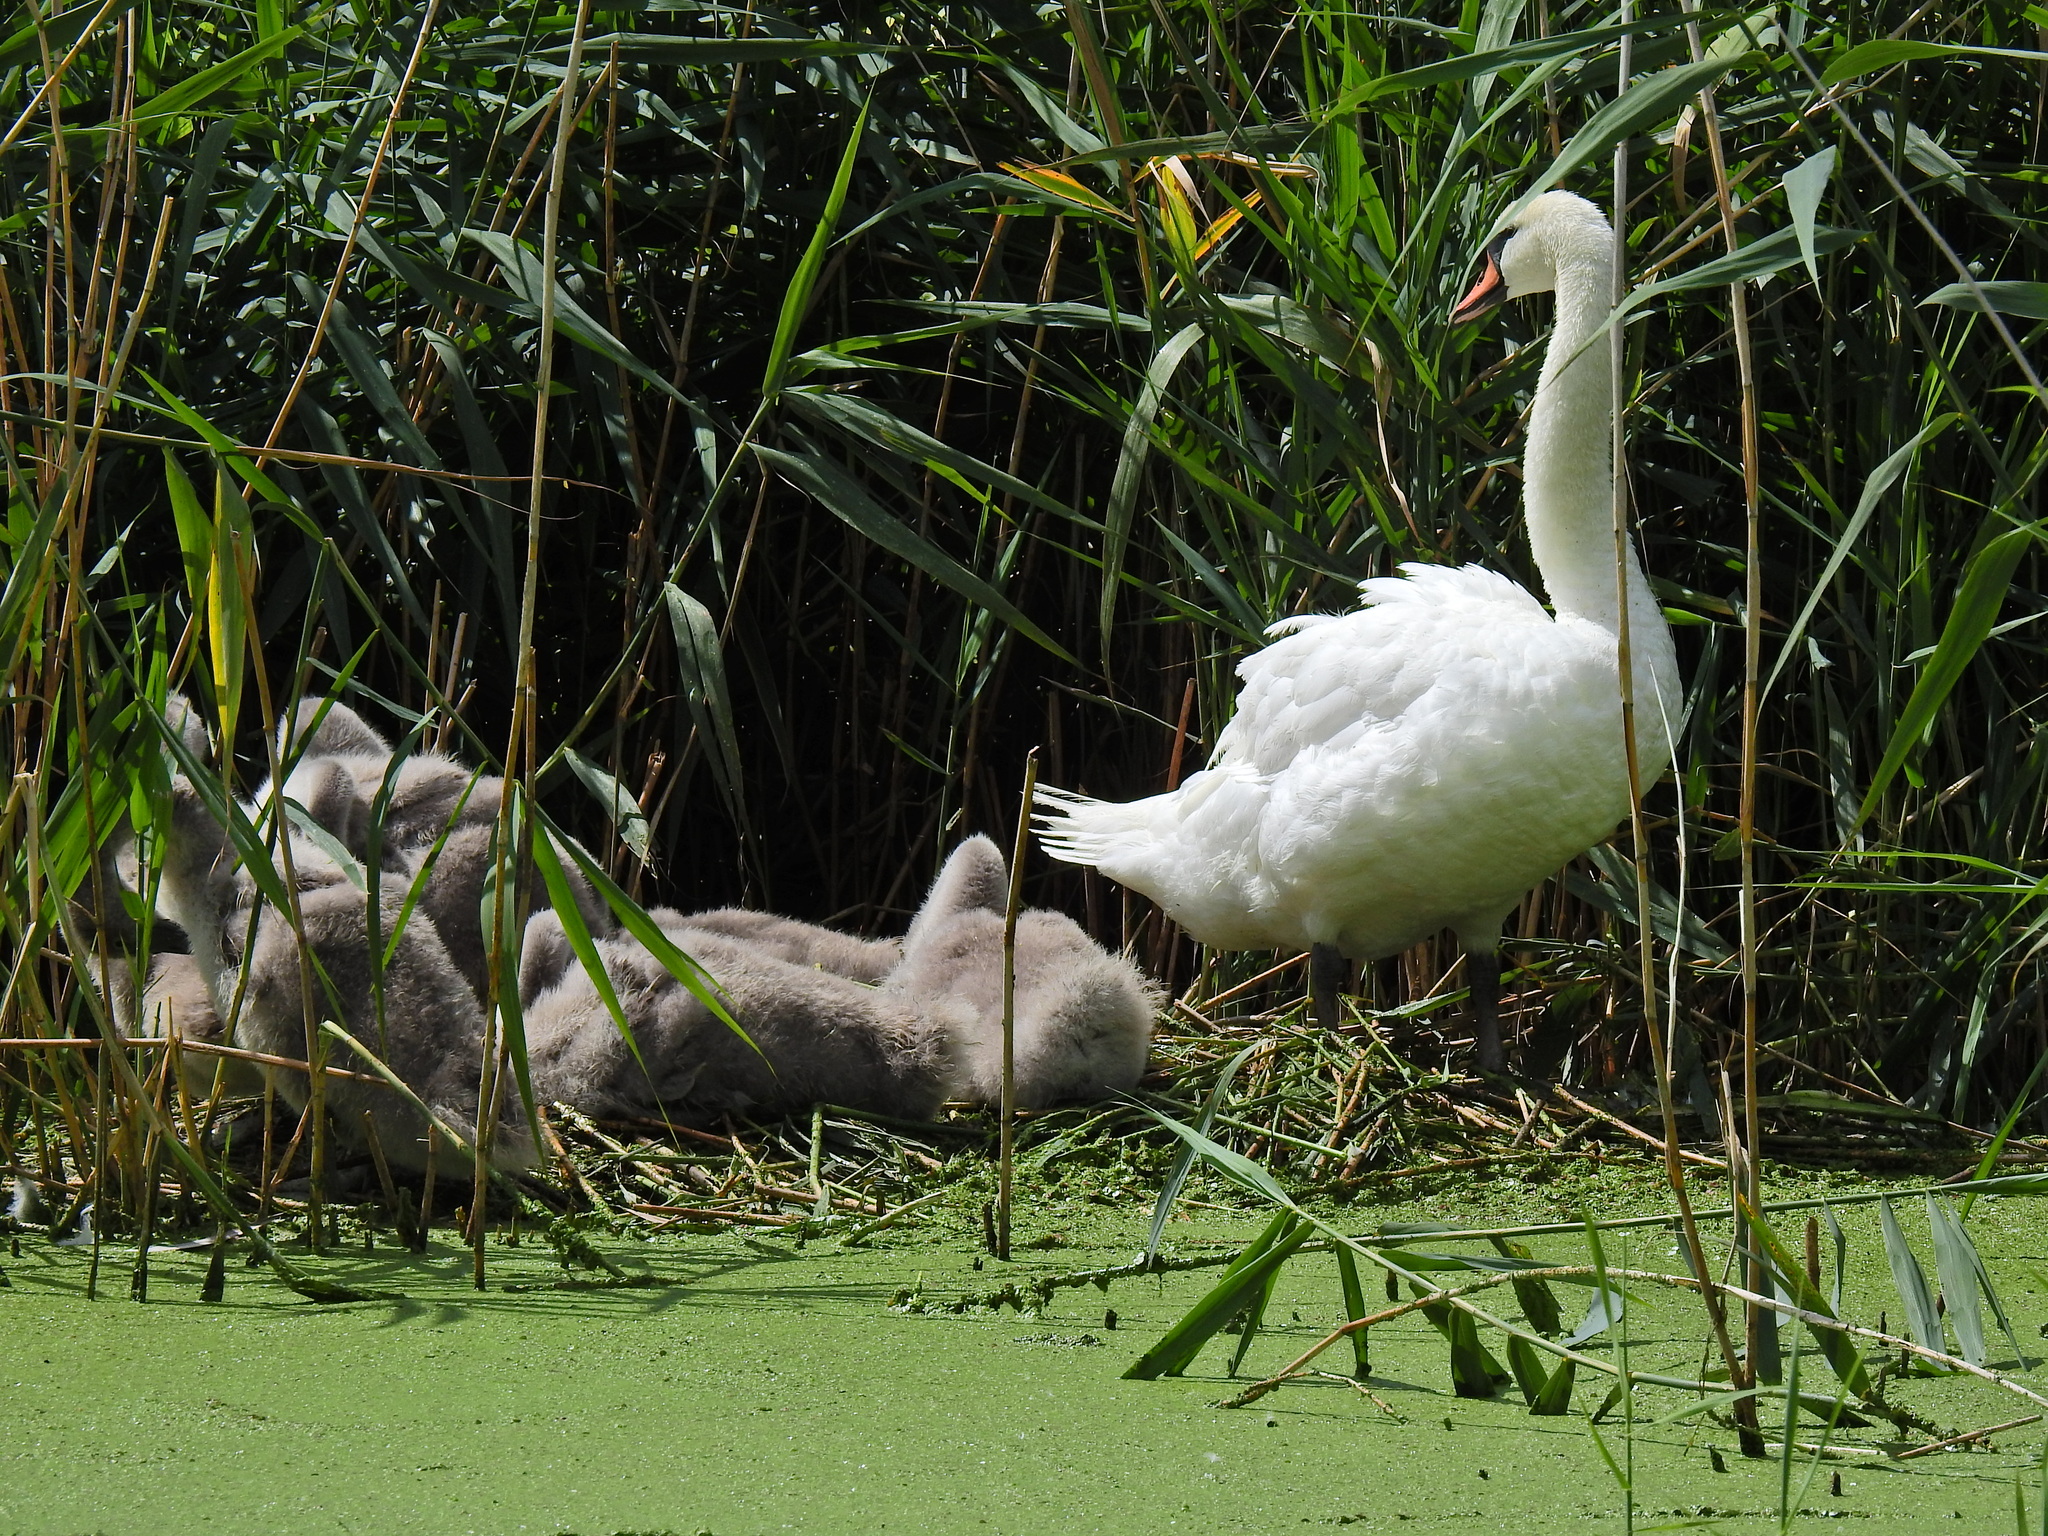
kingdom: Animalia
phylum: Chordata
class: Aves
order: Anseriformes
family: Anatidae
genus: Cygnus
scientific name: Cygnus olor
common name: Mute swan
